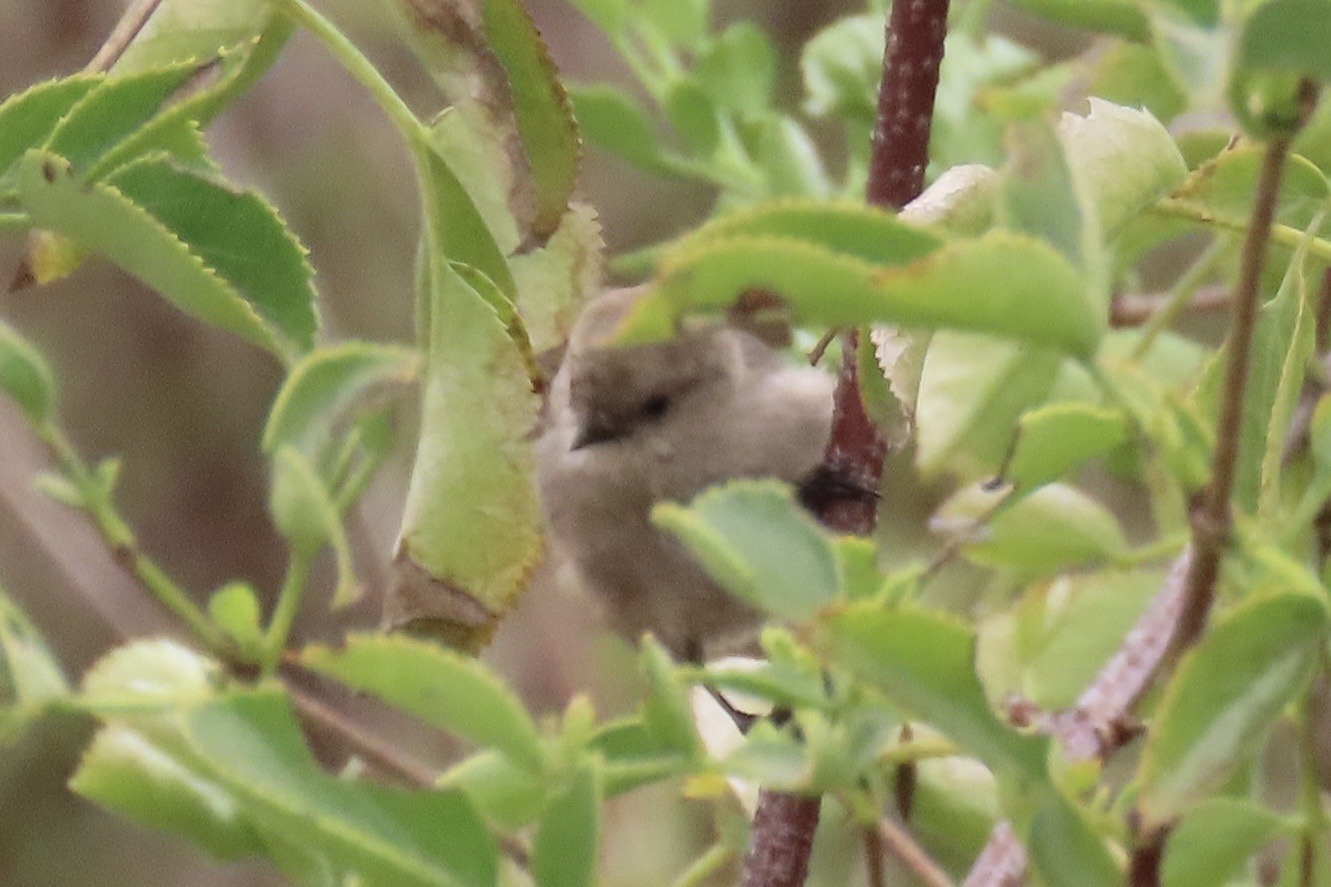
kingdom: Animalia
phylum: Chordata
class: Aves
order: Passeriformes
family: Aegithalidae
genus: Psaltriparus
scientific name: Psaltriparus minimus
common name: American bushtit
